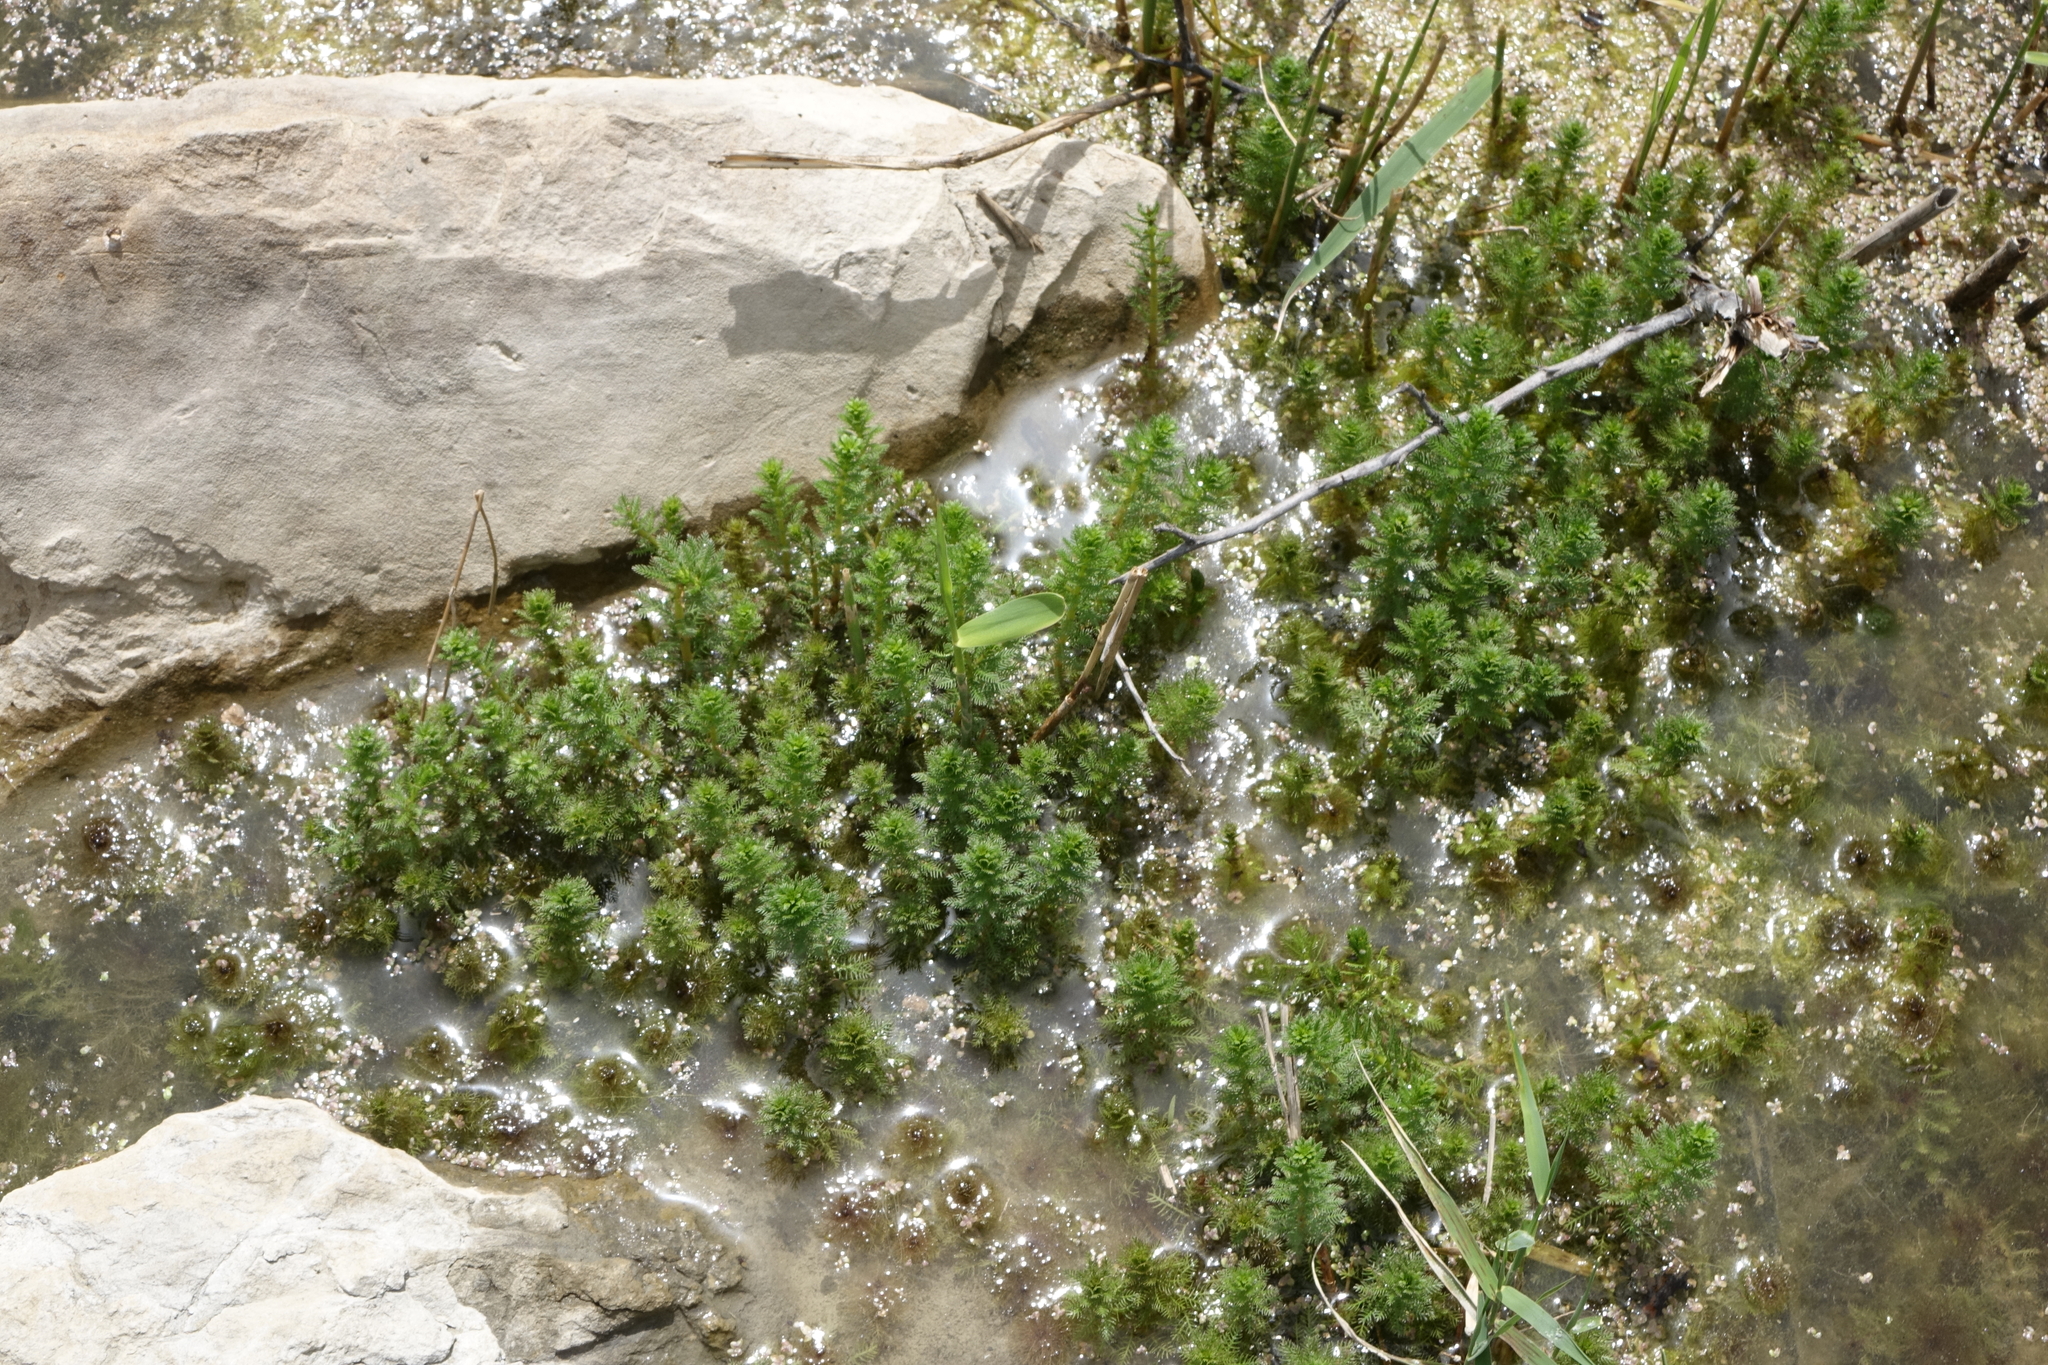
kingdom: Plantae
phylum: Tracheophyta
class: Magnoliopsida
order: Saxifragales
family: Haloragaceae
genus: Myriophyllum
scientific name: Myriophyllum verticillatum
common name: Whorled water-milfoil
